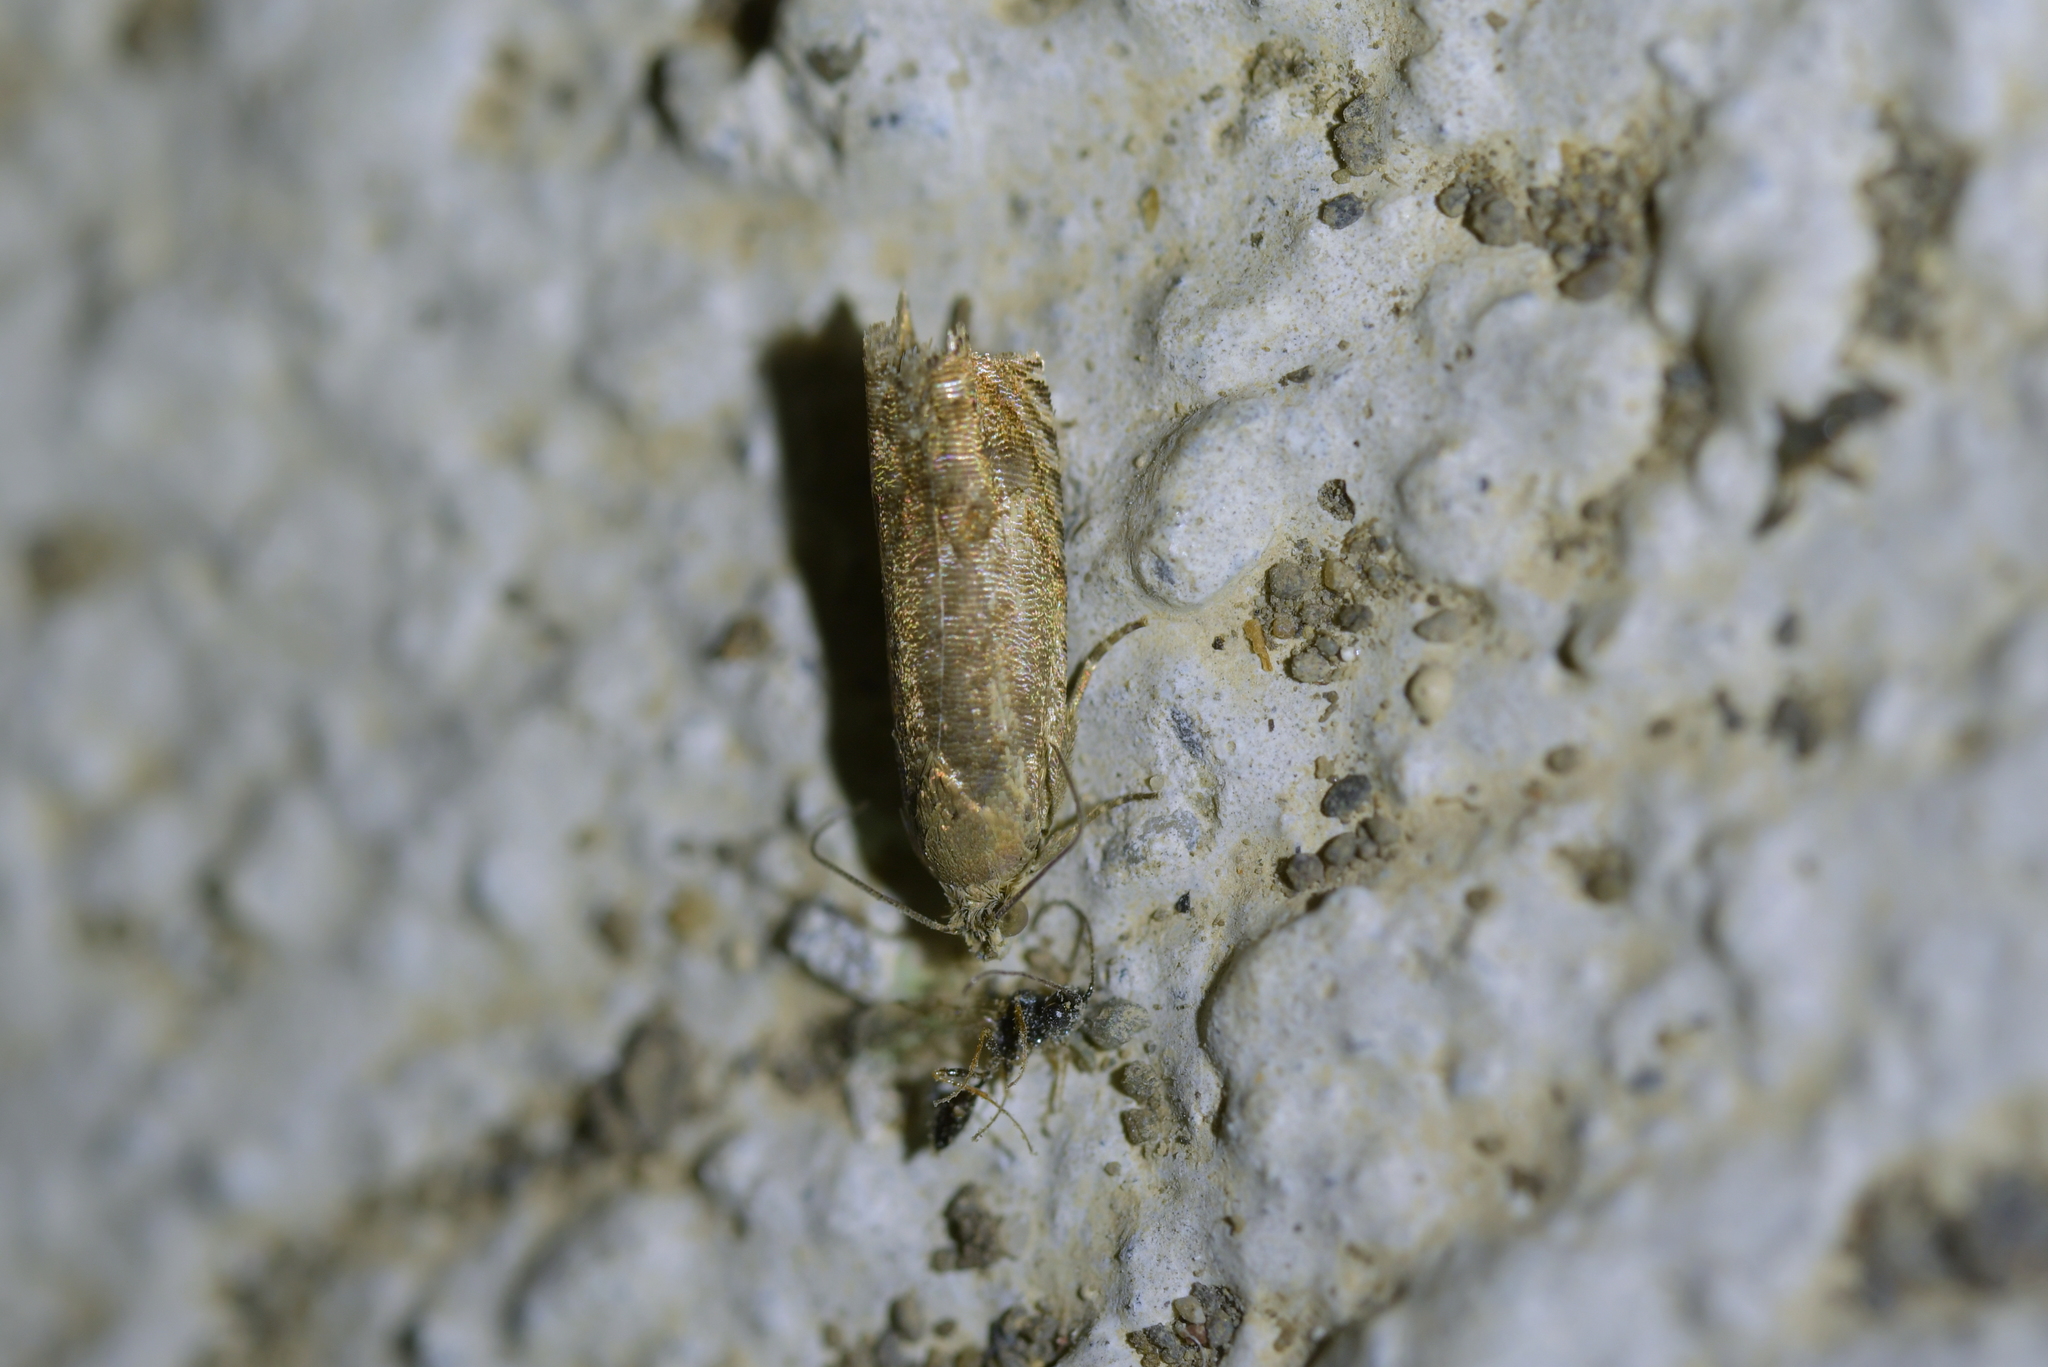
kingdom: Animalia
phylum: Arthropoda
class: Insecta
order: Lepidoptera
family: Tortricidae
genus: Cydia
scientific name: Cydia succedana
